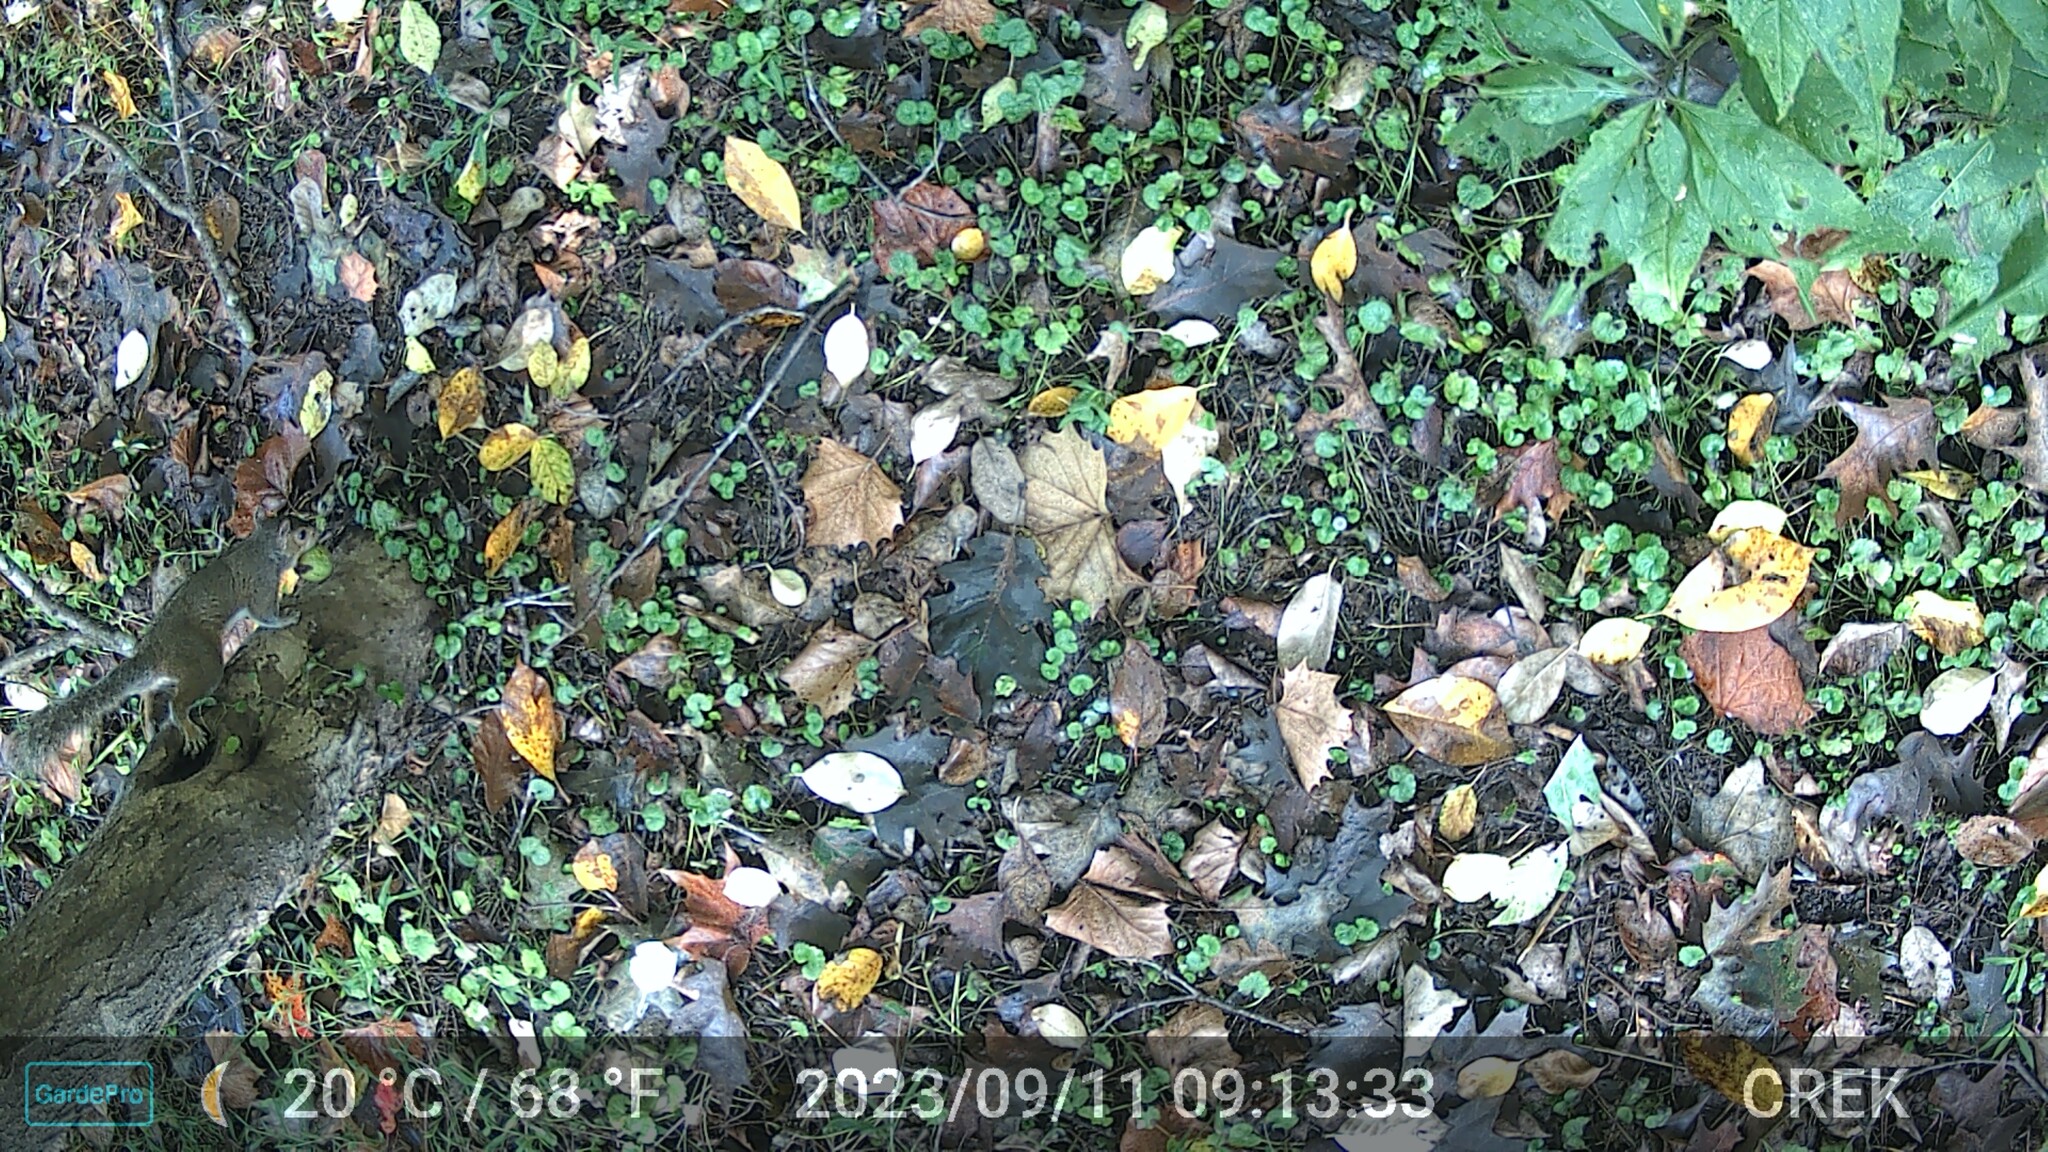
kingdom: Animalia
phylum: Chordata
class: Mammalia
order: Rodentia
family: Sciuridae
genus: Sciurus
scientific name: Sciurus carolinensis
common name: Eastern gray squirrel
